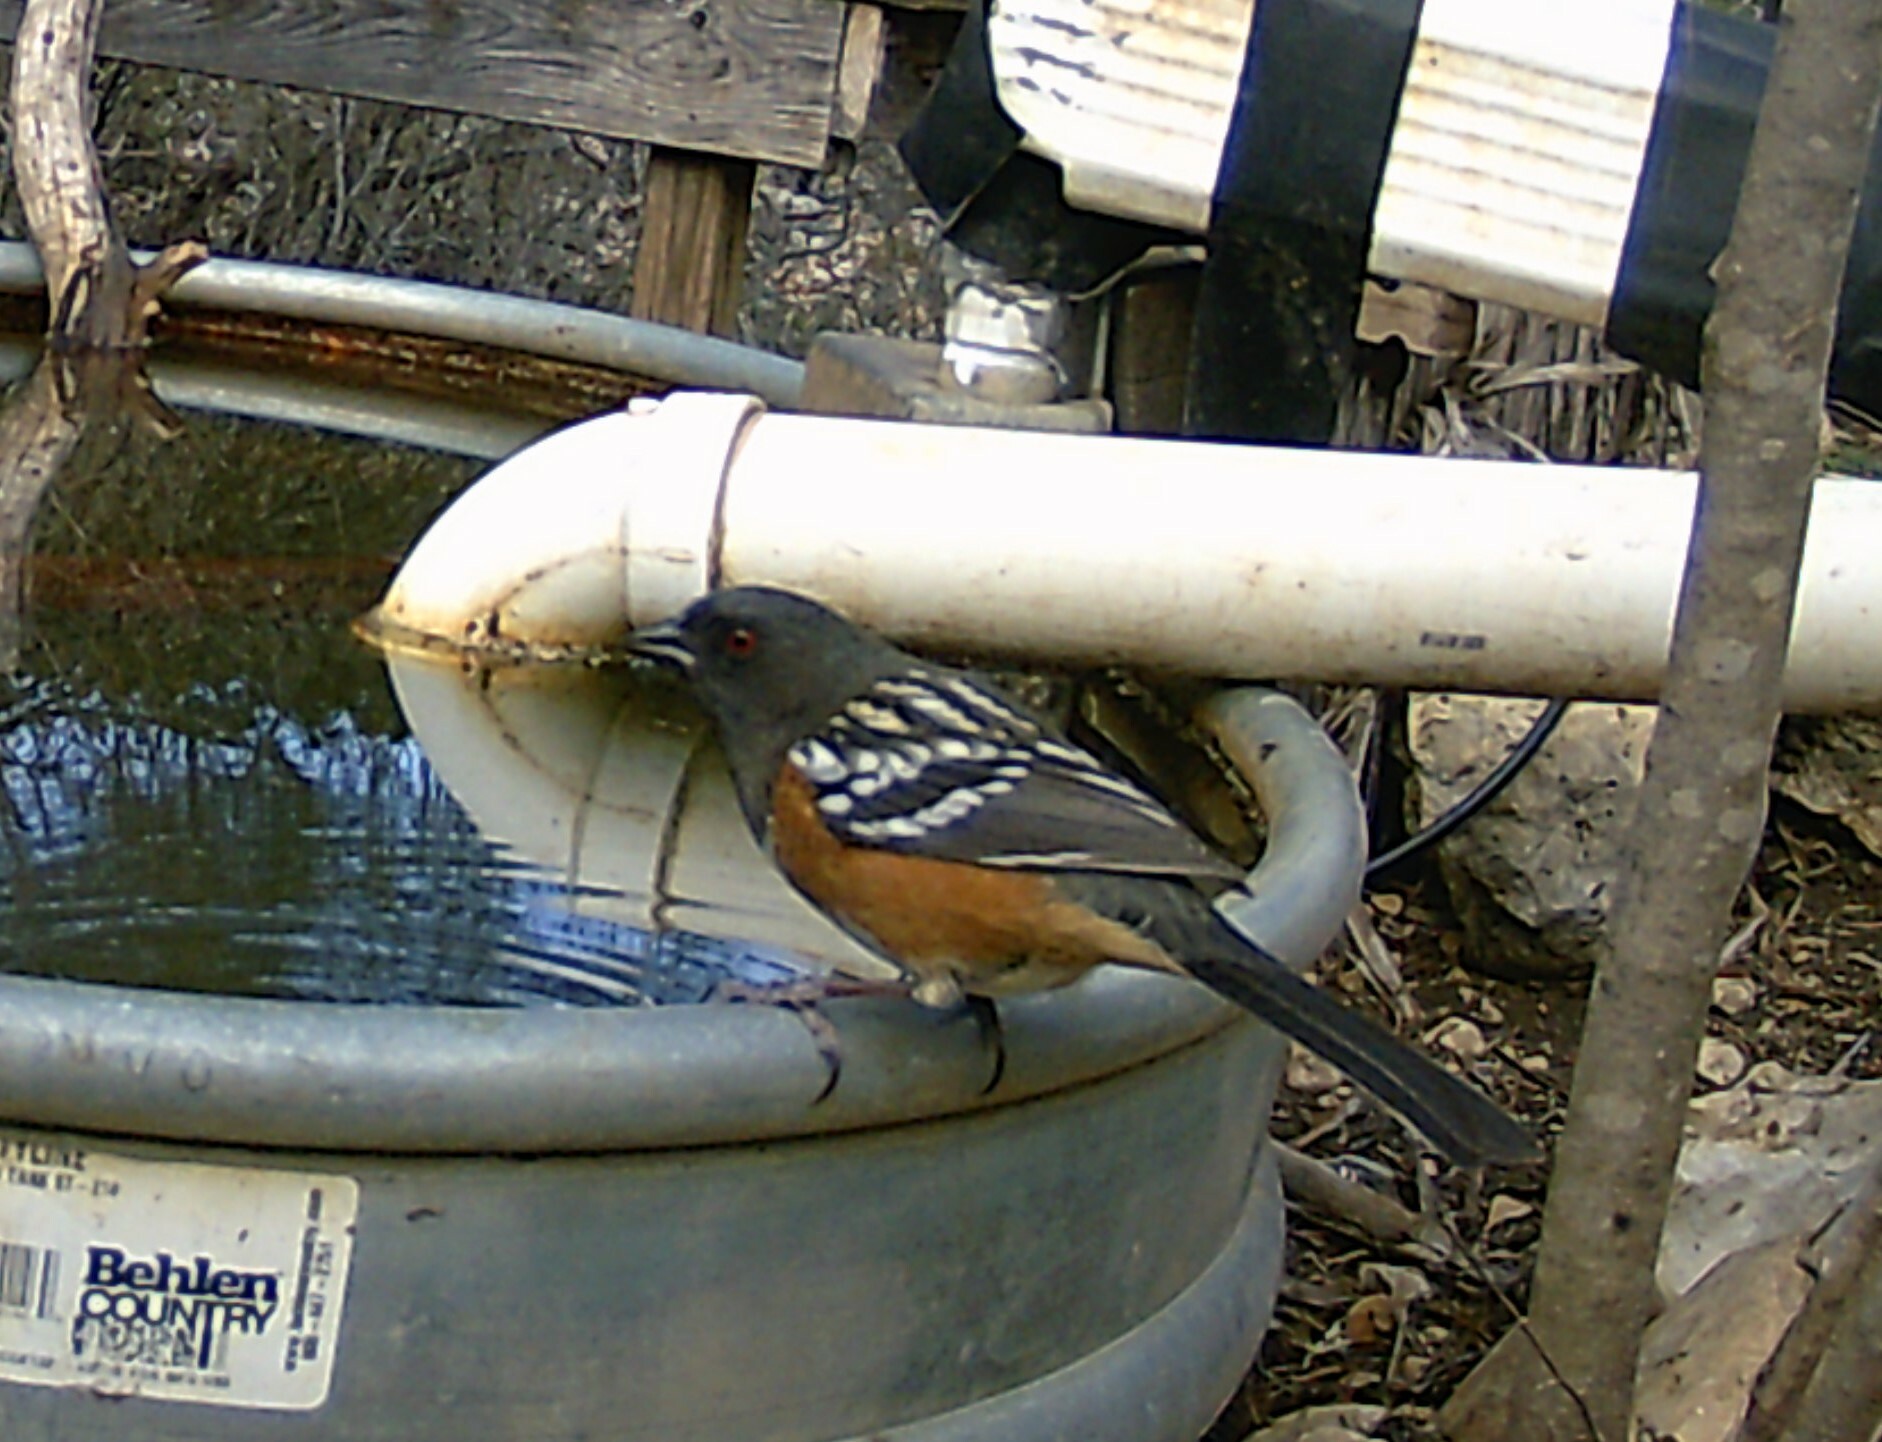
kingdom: Animalia
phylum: Chordata
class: Aves
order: Passeriformes
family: Passerellidae
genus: Pipilo
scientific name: Pipilo maculatus
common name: Spotted towhee
